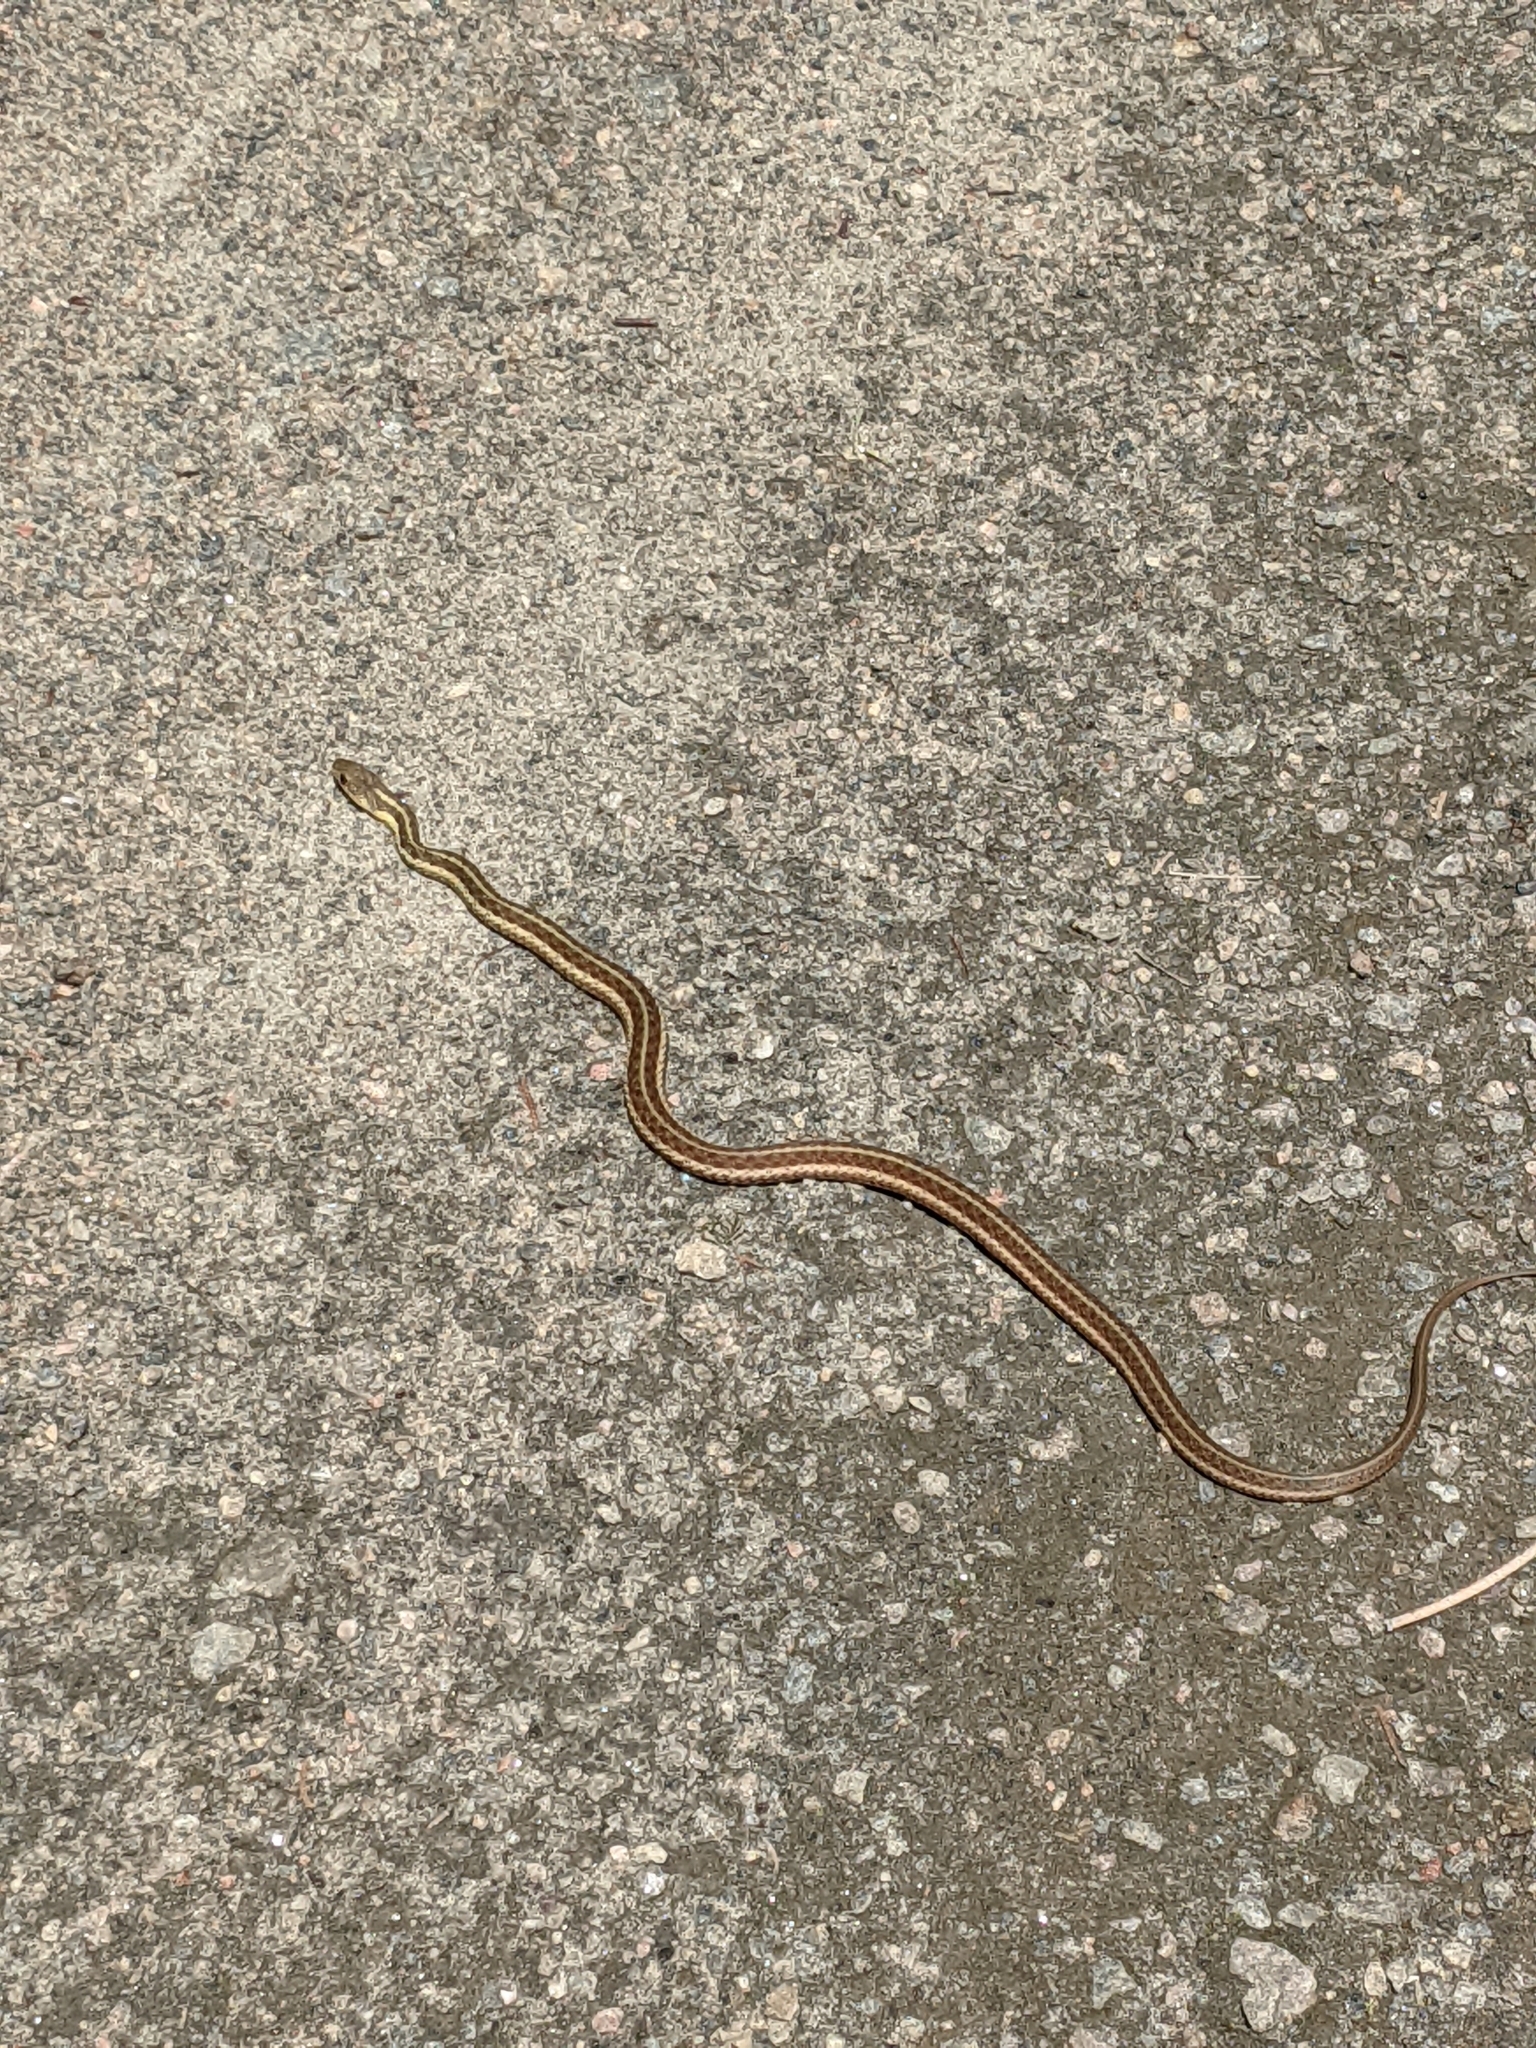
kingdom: Animalia
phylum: Chordata
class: Squamata
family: Colubridae
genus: Thamnophis
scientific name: Thamnophis sirtalis
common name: Common garter snake
